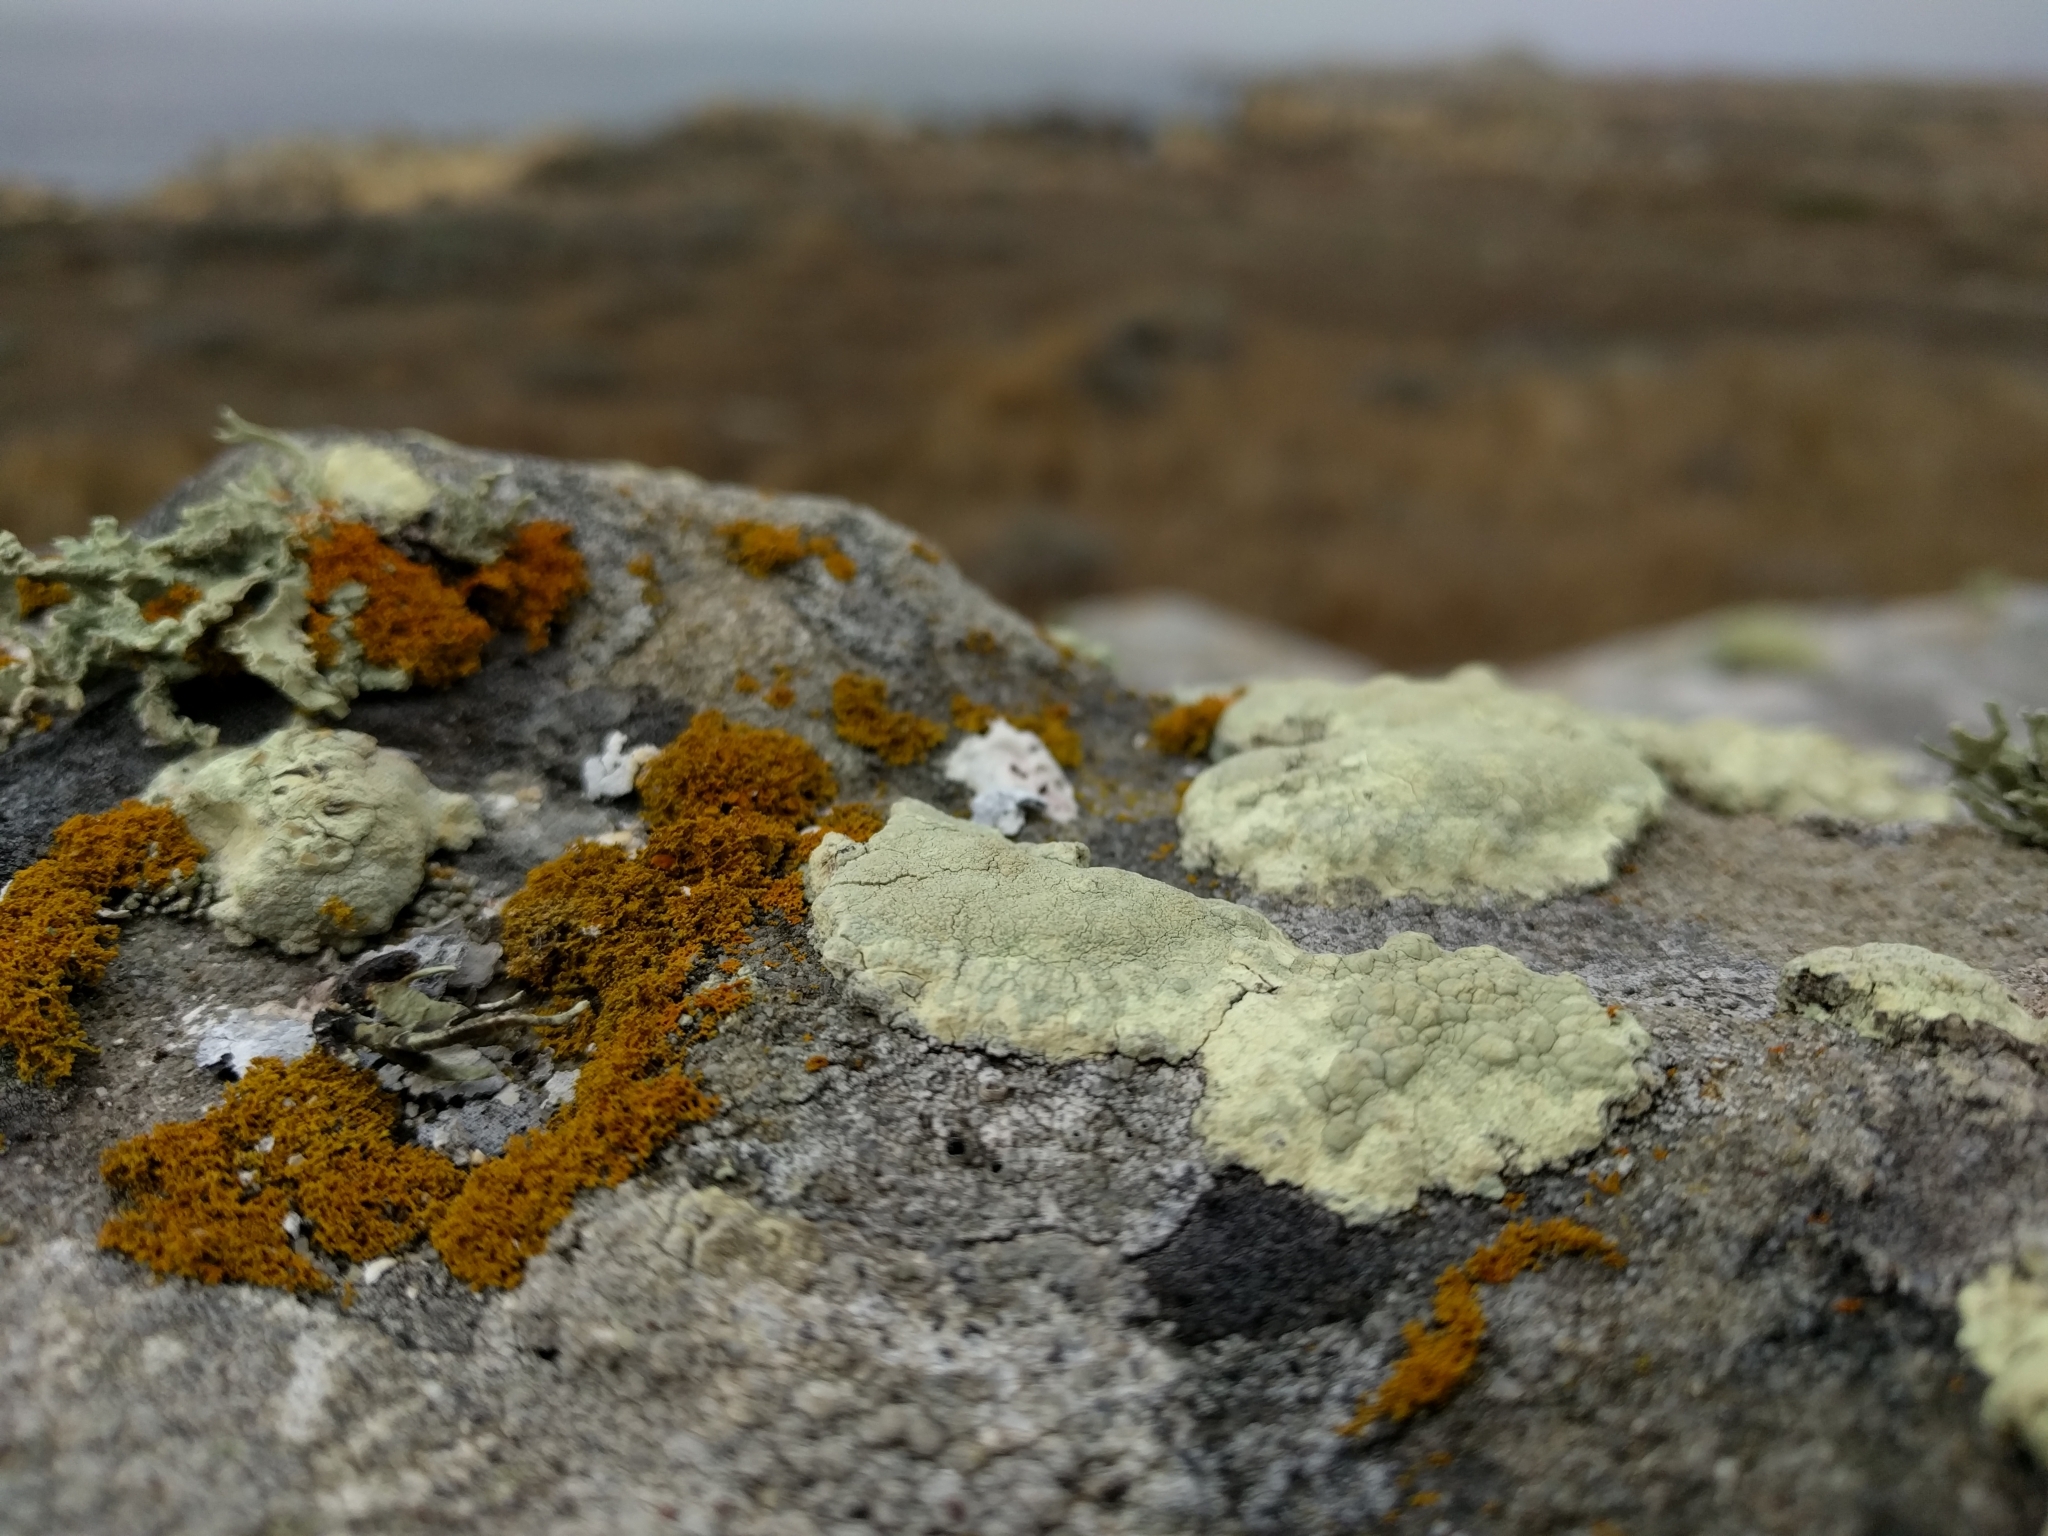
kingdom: Fungi
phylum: Ascomycota
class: Lecanoromycetes
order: Lecanorales
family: Lecanoraceae
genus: Protoparmeliopsis
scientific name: Protoparmeliopsis pinguis
